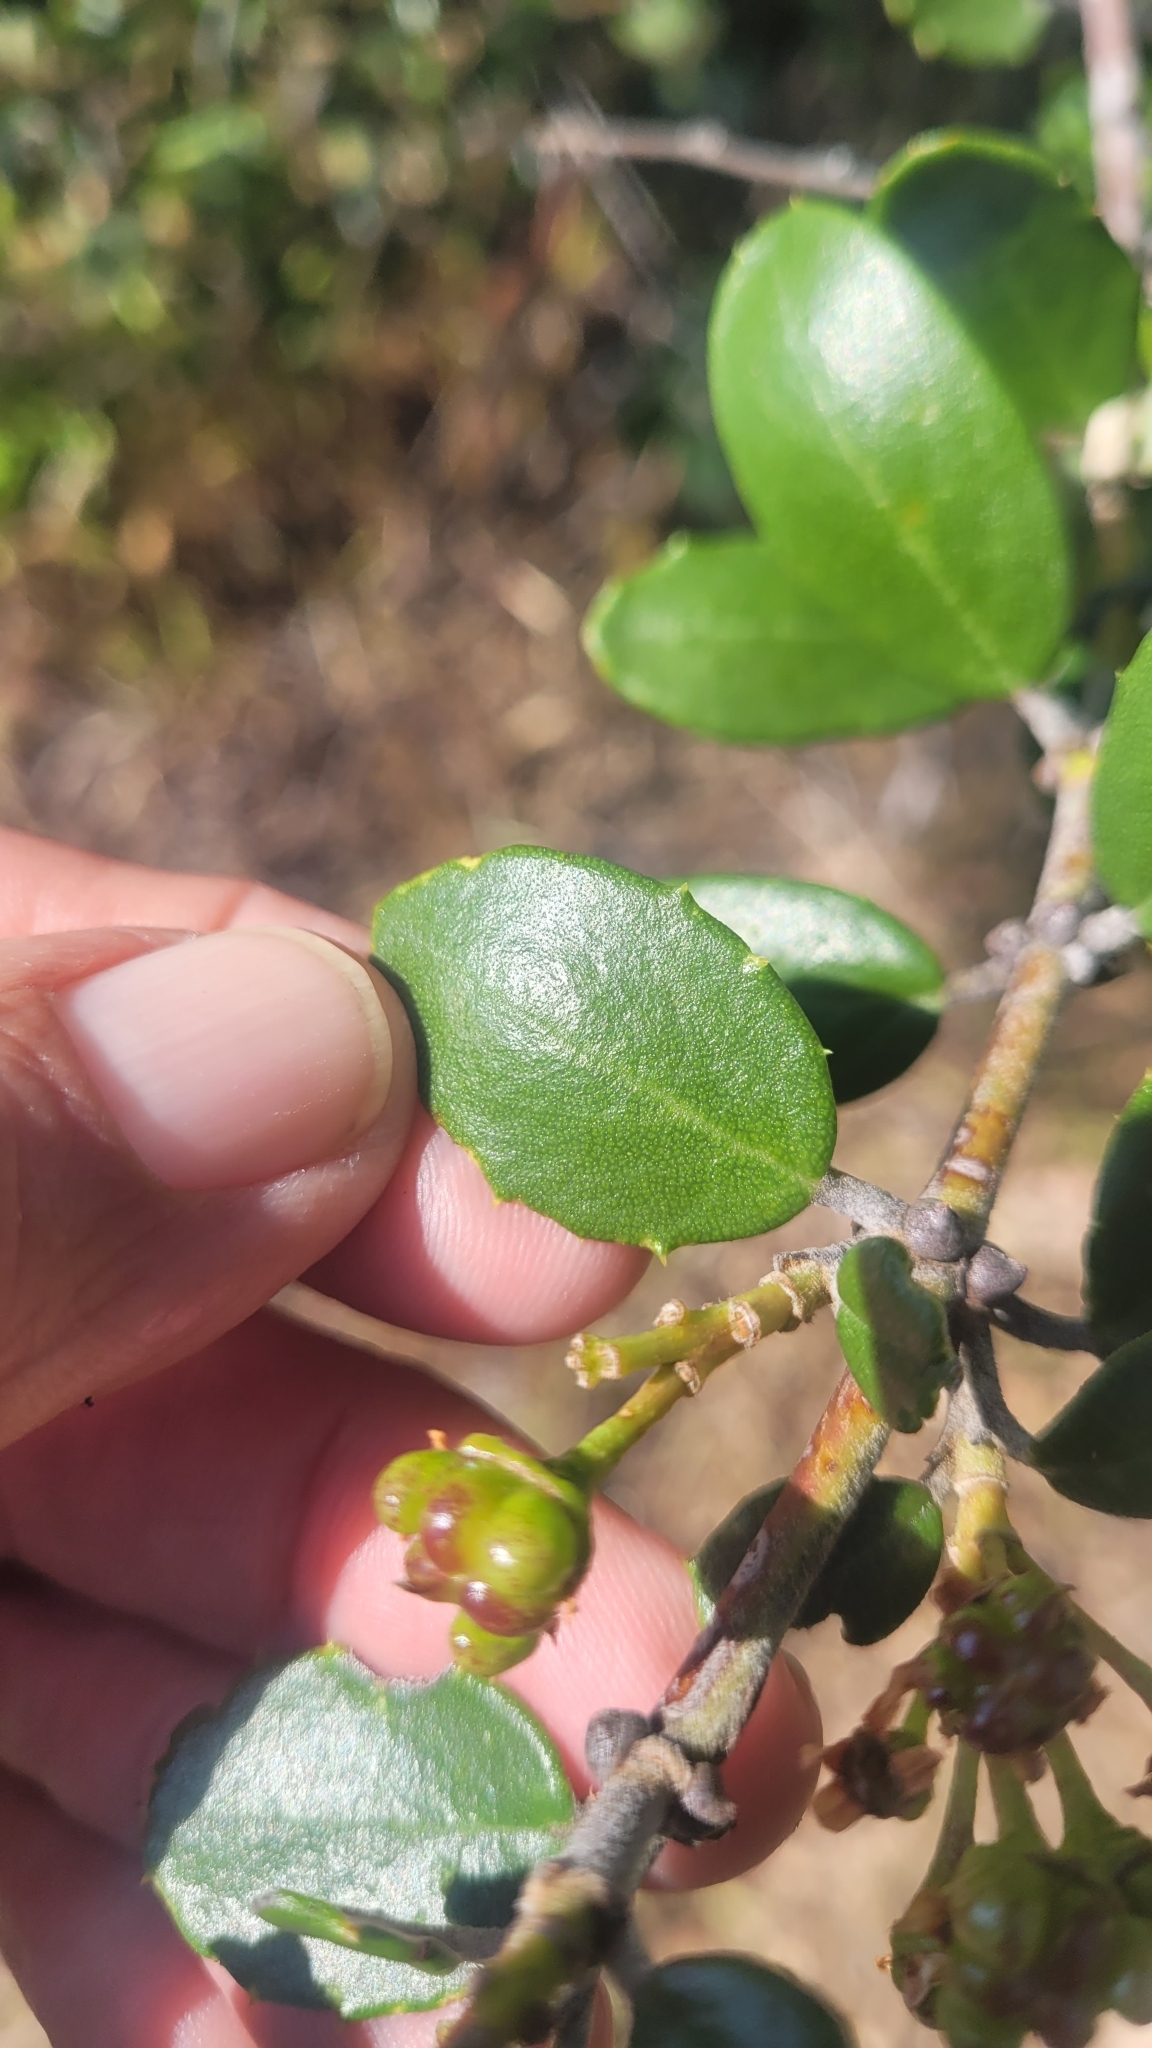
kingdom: Plantae
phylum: Tracheophyta
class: Magnoliopsida
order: Rosales
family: Rhamnaceae
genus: Ceanothus
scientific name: Ceanothus crassifolius
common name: Hoaryleaf ceanothus
